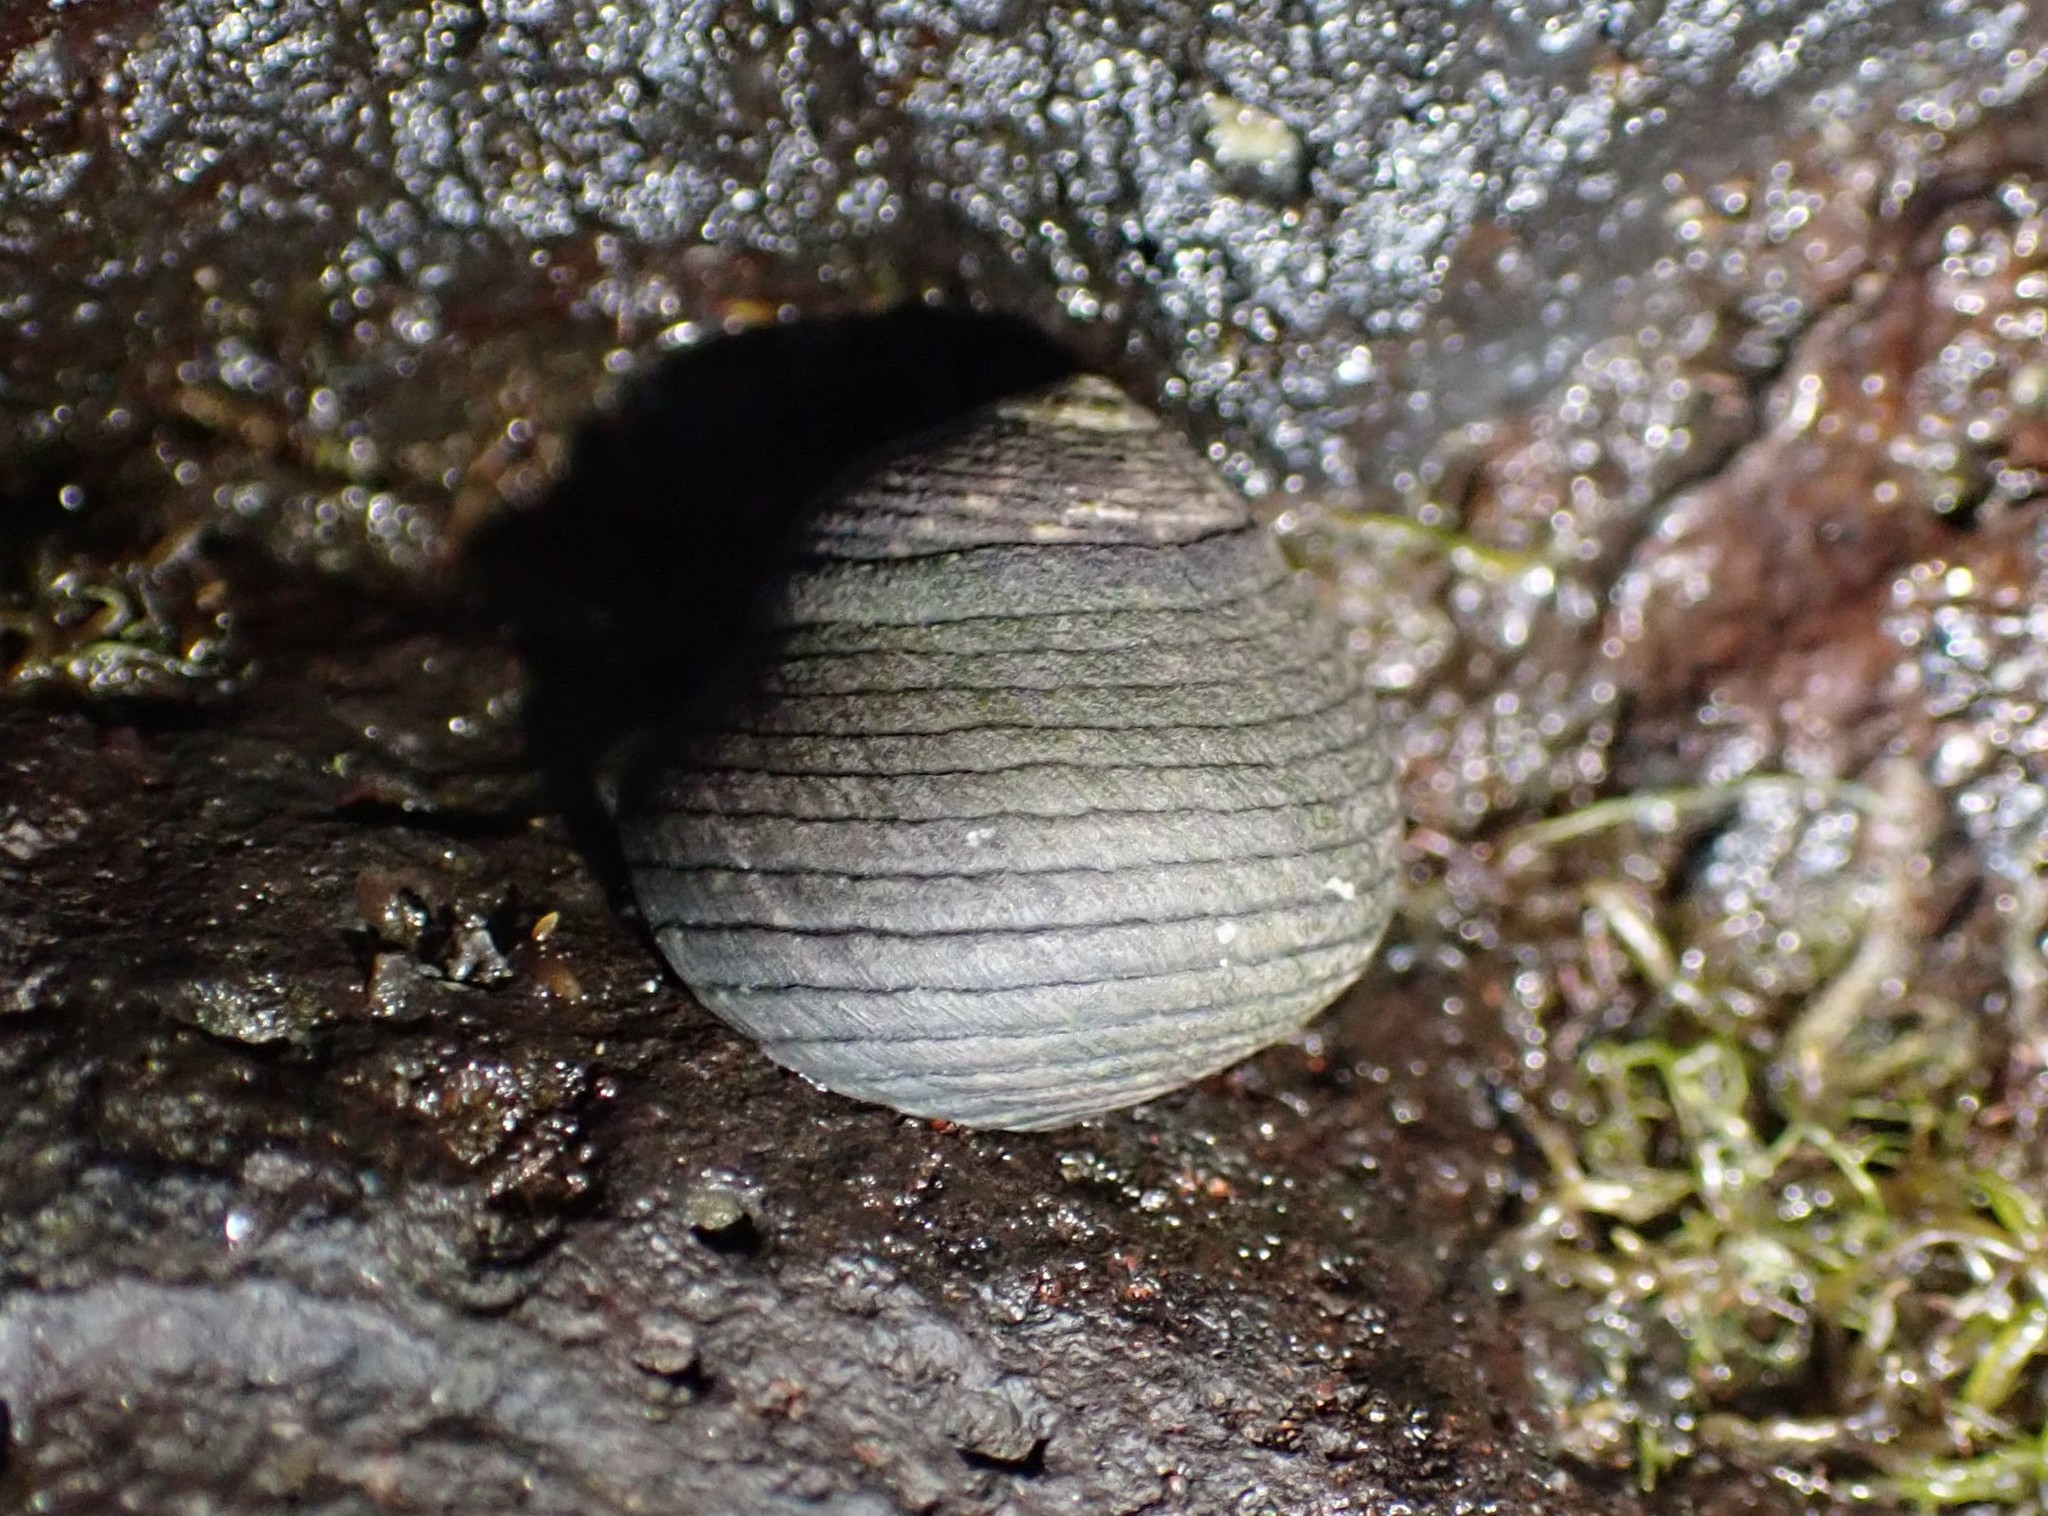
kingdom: Animalia
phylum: Mollusca
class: Gastropoda
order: Trochida
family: Trochidae
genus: Diloma
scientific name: Diloma zelandicum
